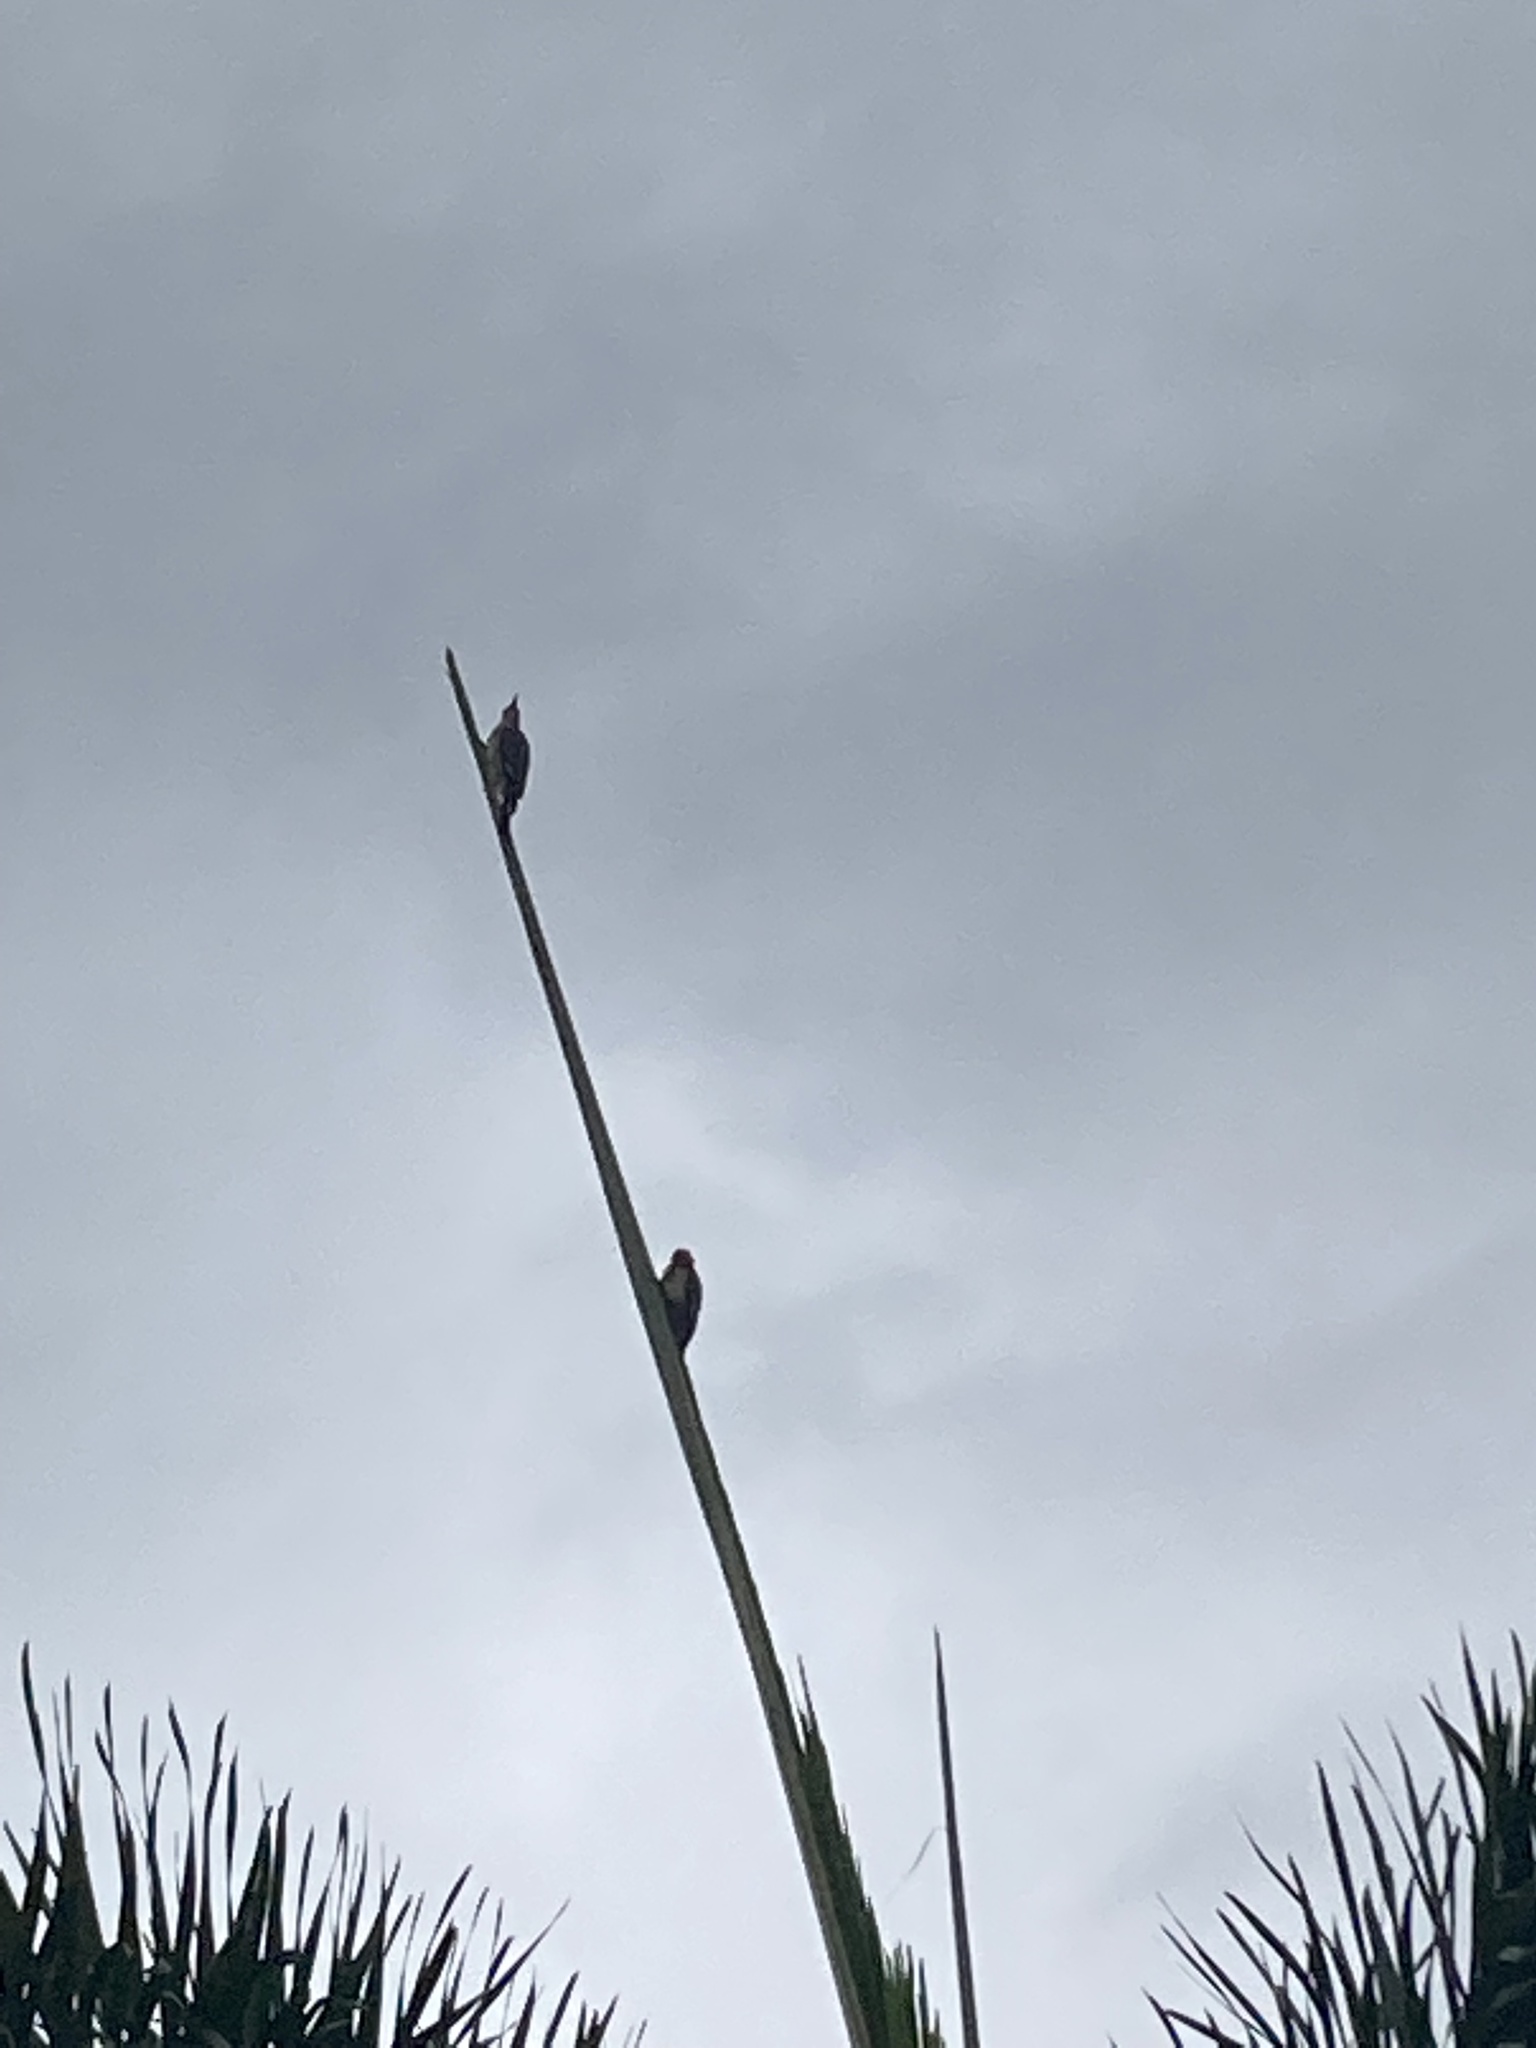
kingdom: Animalia
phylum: Chordata
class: Aves
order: Piciformes
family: Picidae
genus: Melanerpes
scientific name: Melanerpes carolinus
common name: Red-bellied woodpecker
